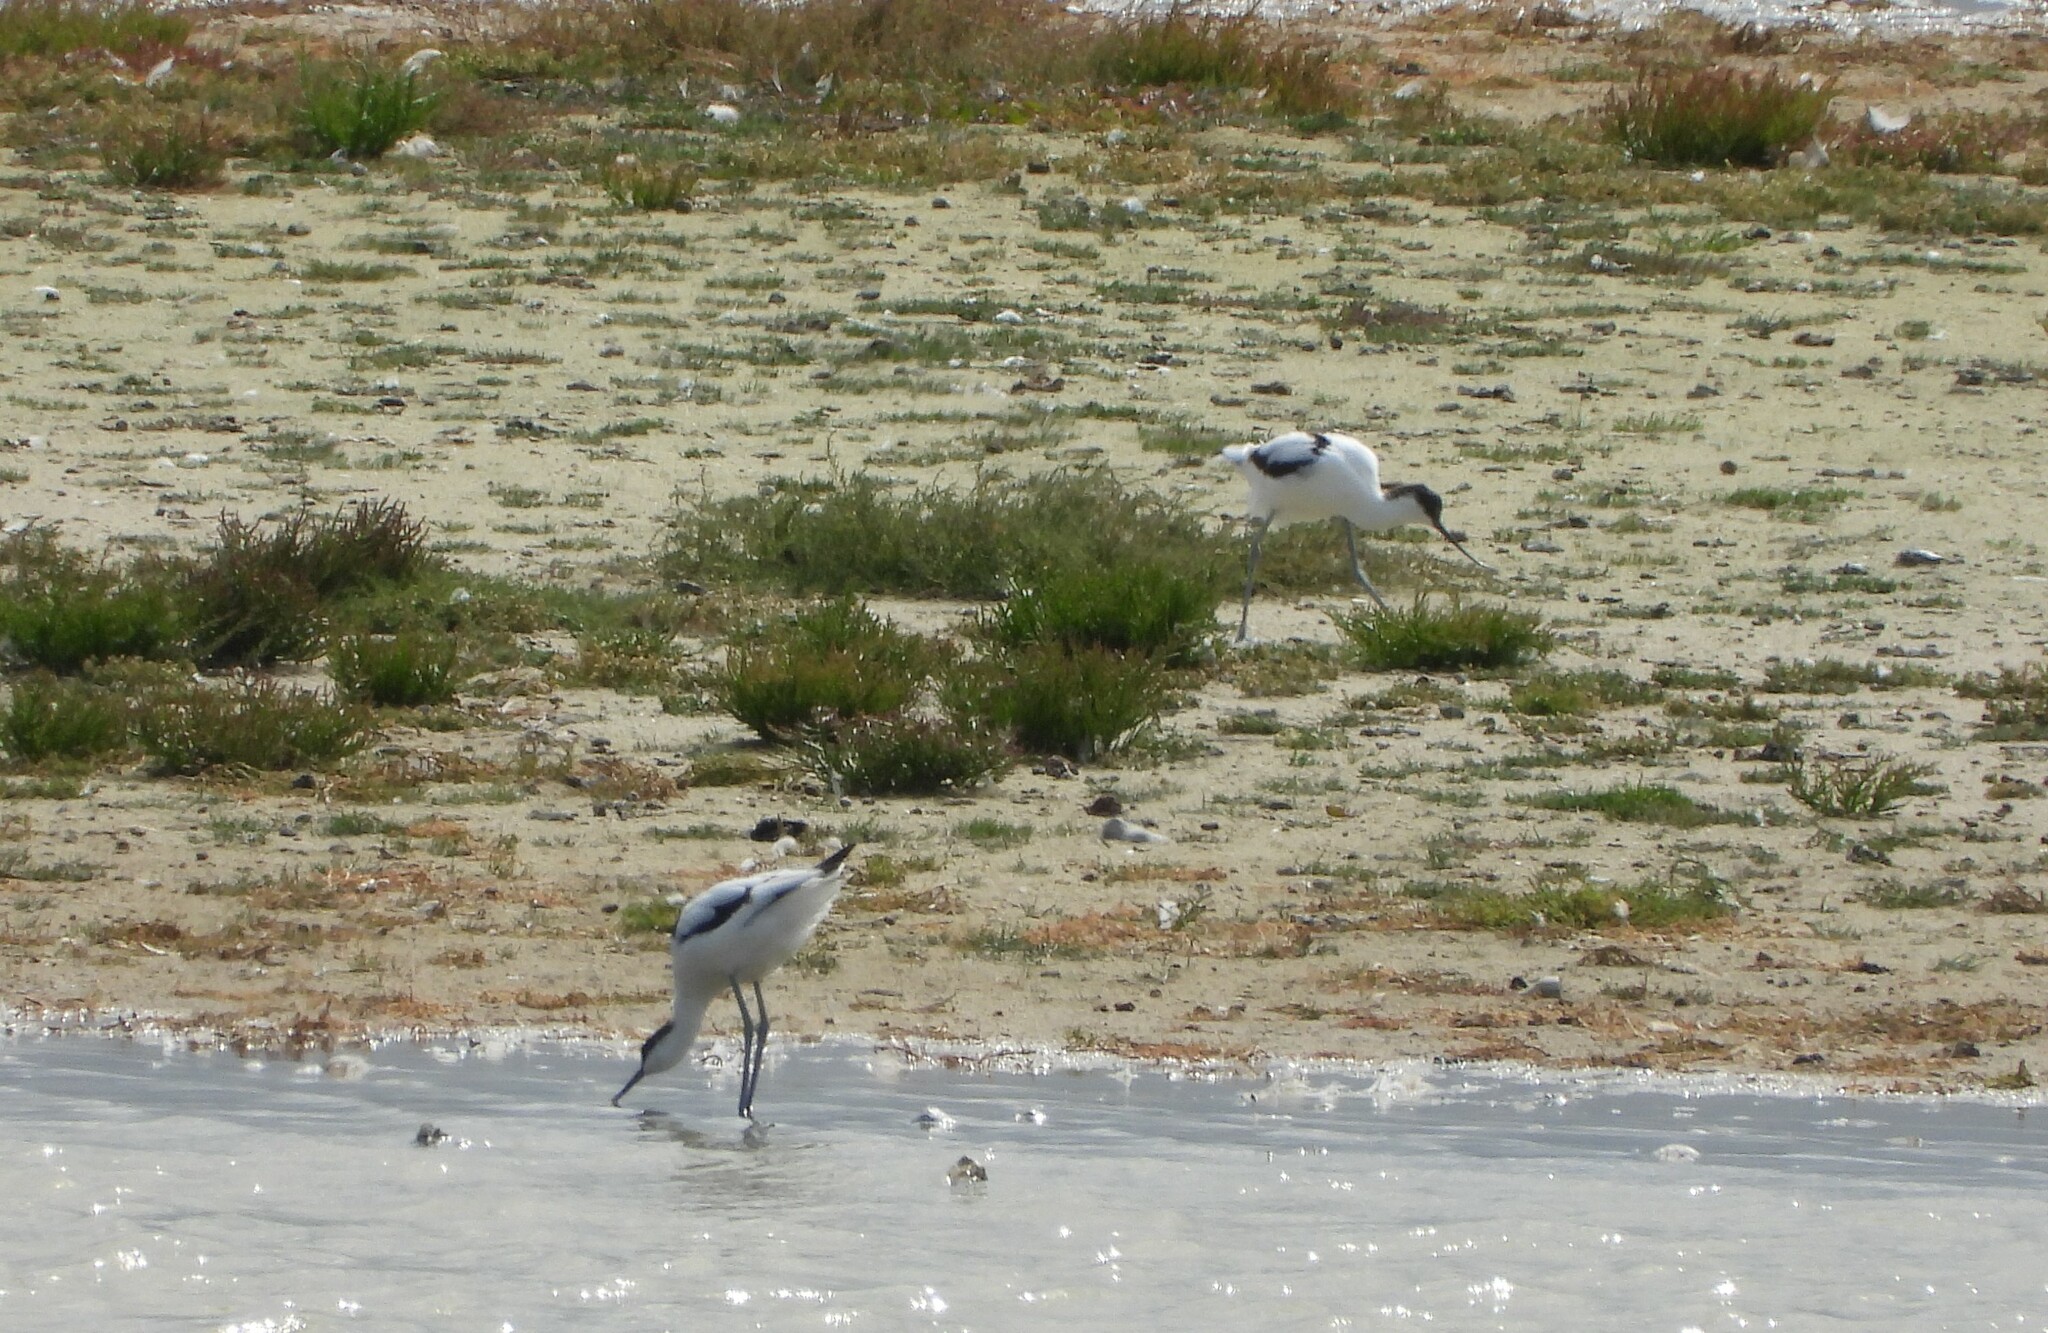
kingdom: Animalia
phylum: Chordata
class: Aves
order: Charadriiformes
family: Recurvirostridae
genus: Recurvirostra
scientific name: Recurvirostra avosetta
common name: Pied avocet
